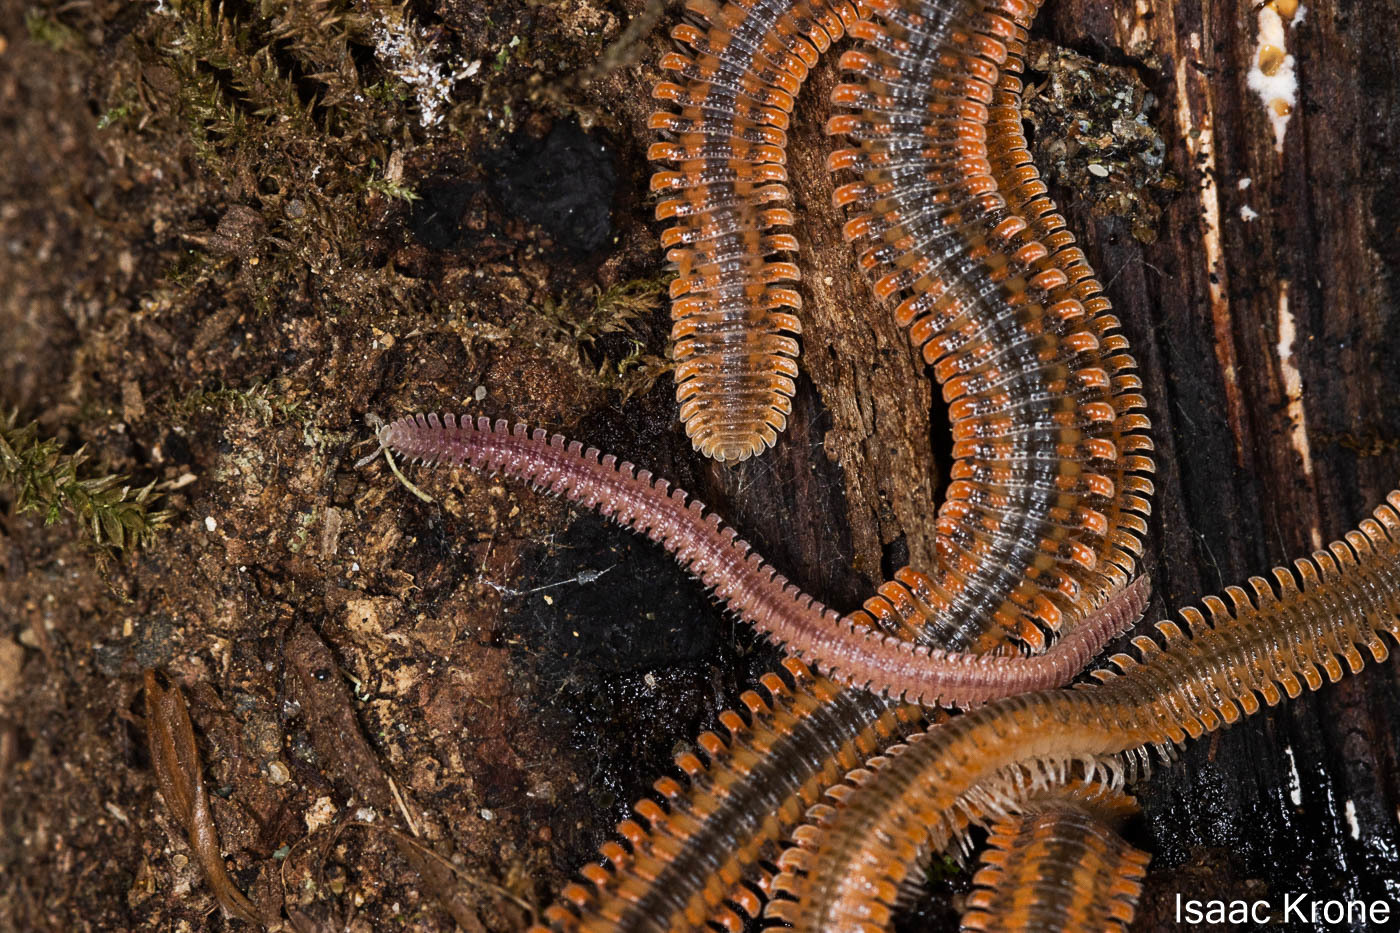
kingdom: Animalia
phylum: Arthropoda
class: Diplopoda
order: Platydesmida
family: Andrognathidae
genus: Gosodesmus
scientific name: Gosodesmus claremontus
